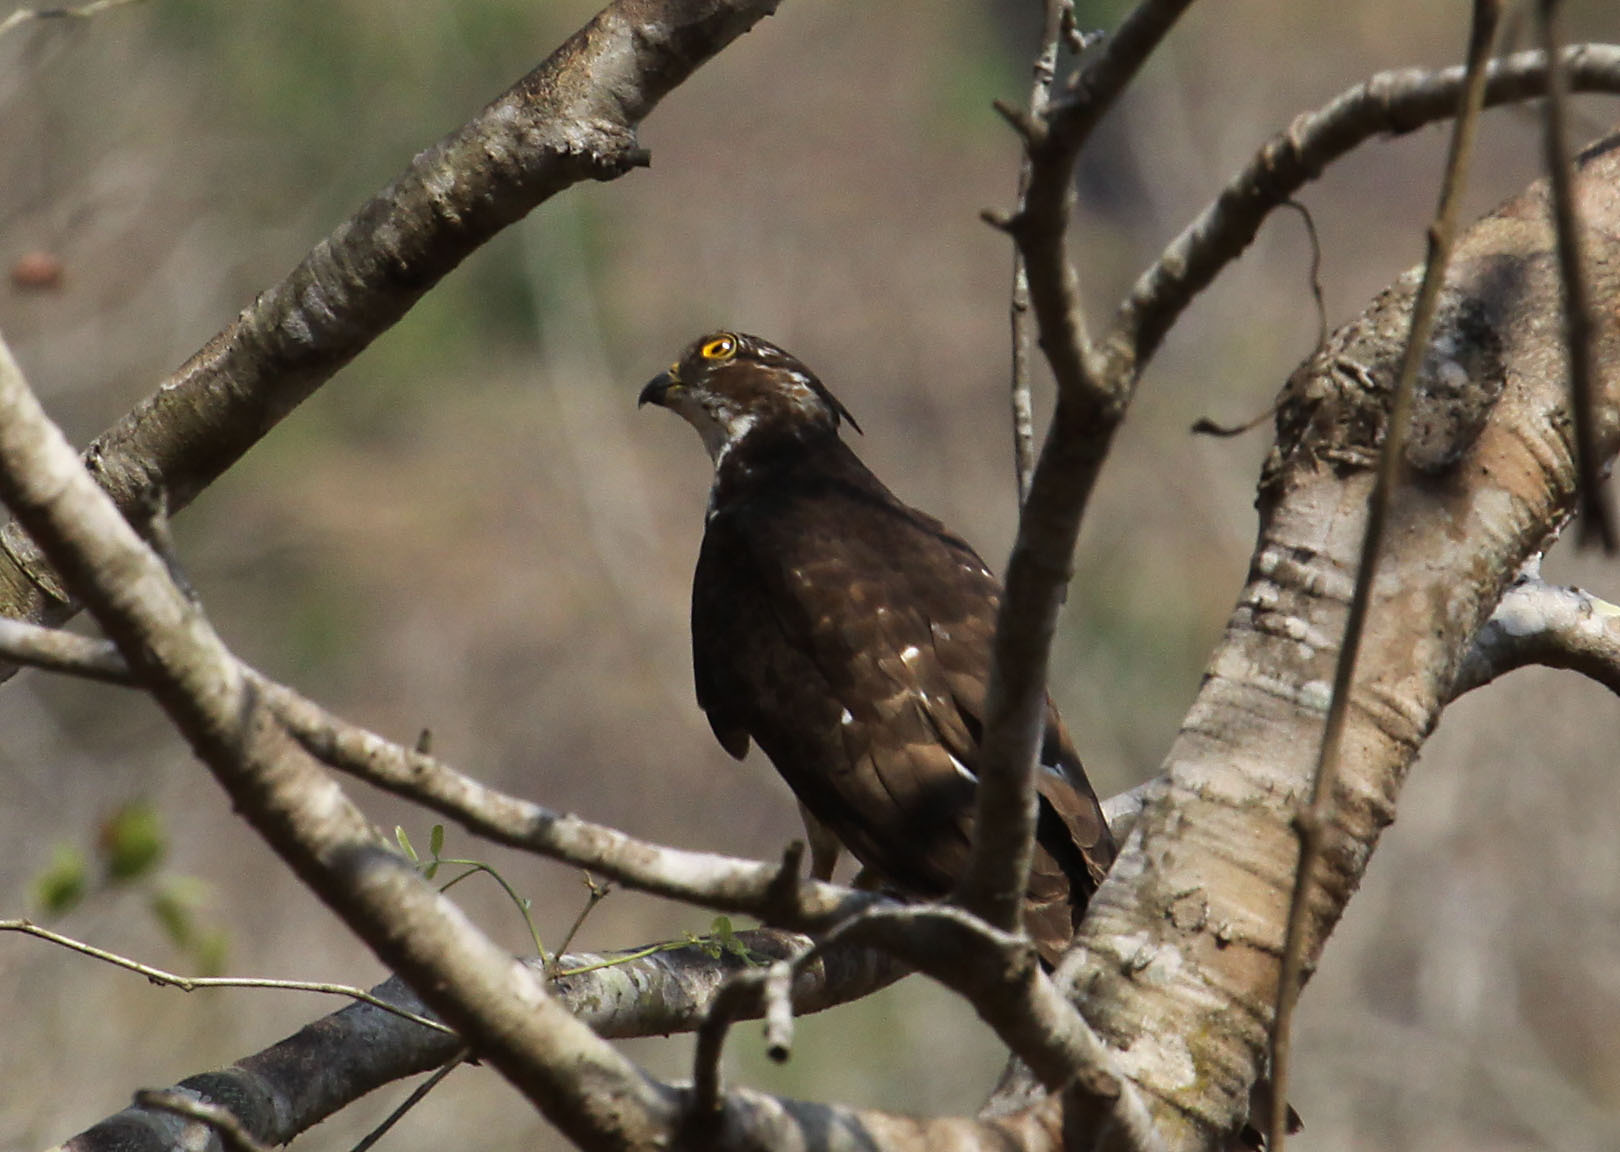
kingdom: Animalia
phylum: Chordata
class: Aves
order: Accipitriformes
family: Accipitridae
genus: Aviceda
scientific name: Aviceda cuculoides
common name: African cuckoo-hawk
